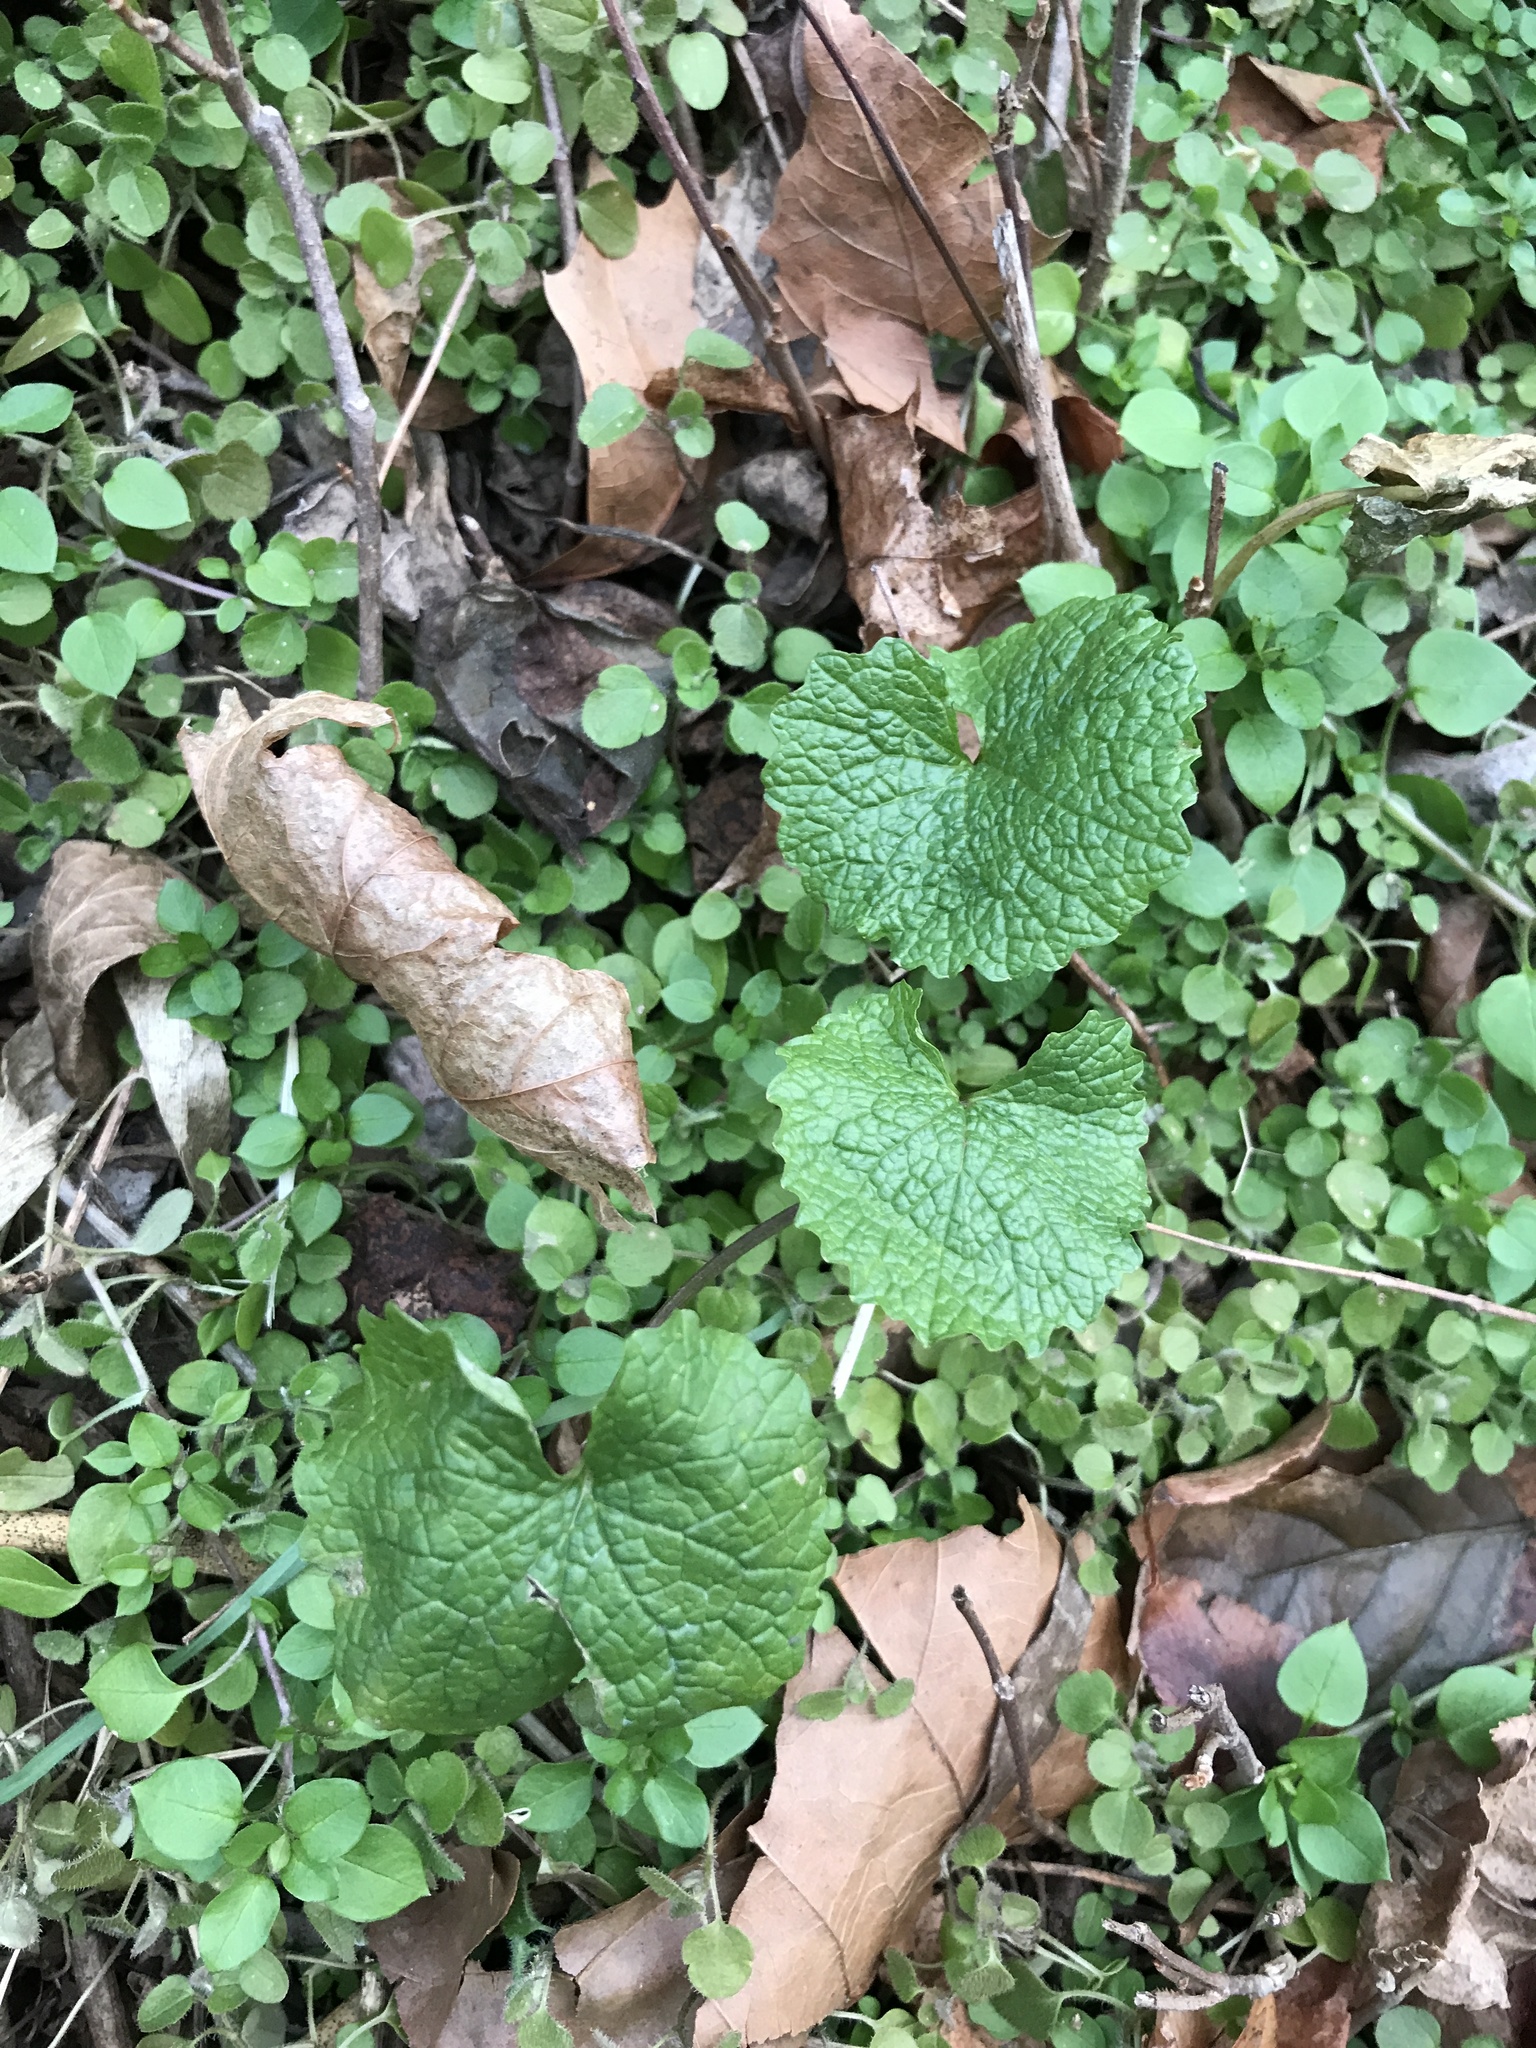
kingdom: Plantae
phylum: Tracheophyta
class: Magnoliopsida
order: Brassicales
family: Brassicaceae
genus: Alliaria
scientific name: Alliaria petiolata
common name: Garlic mustard
